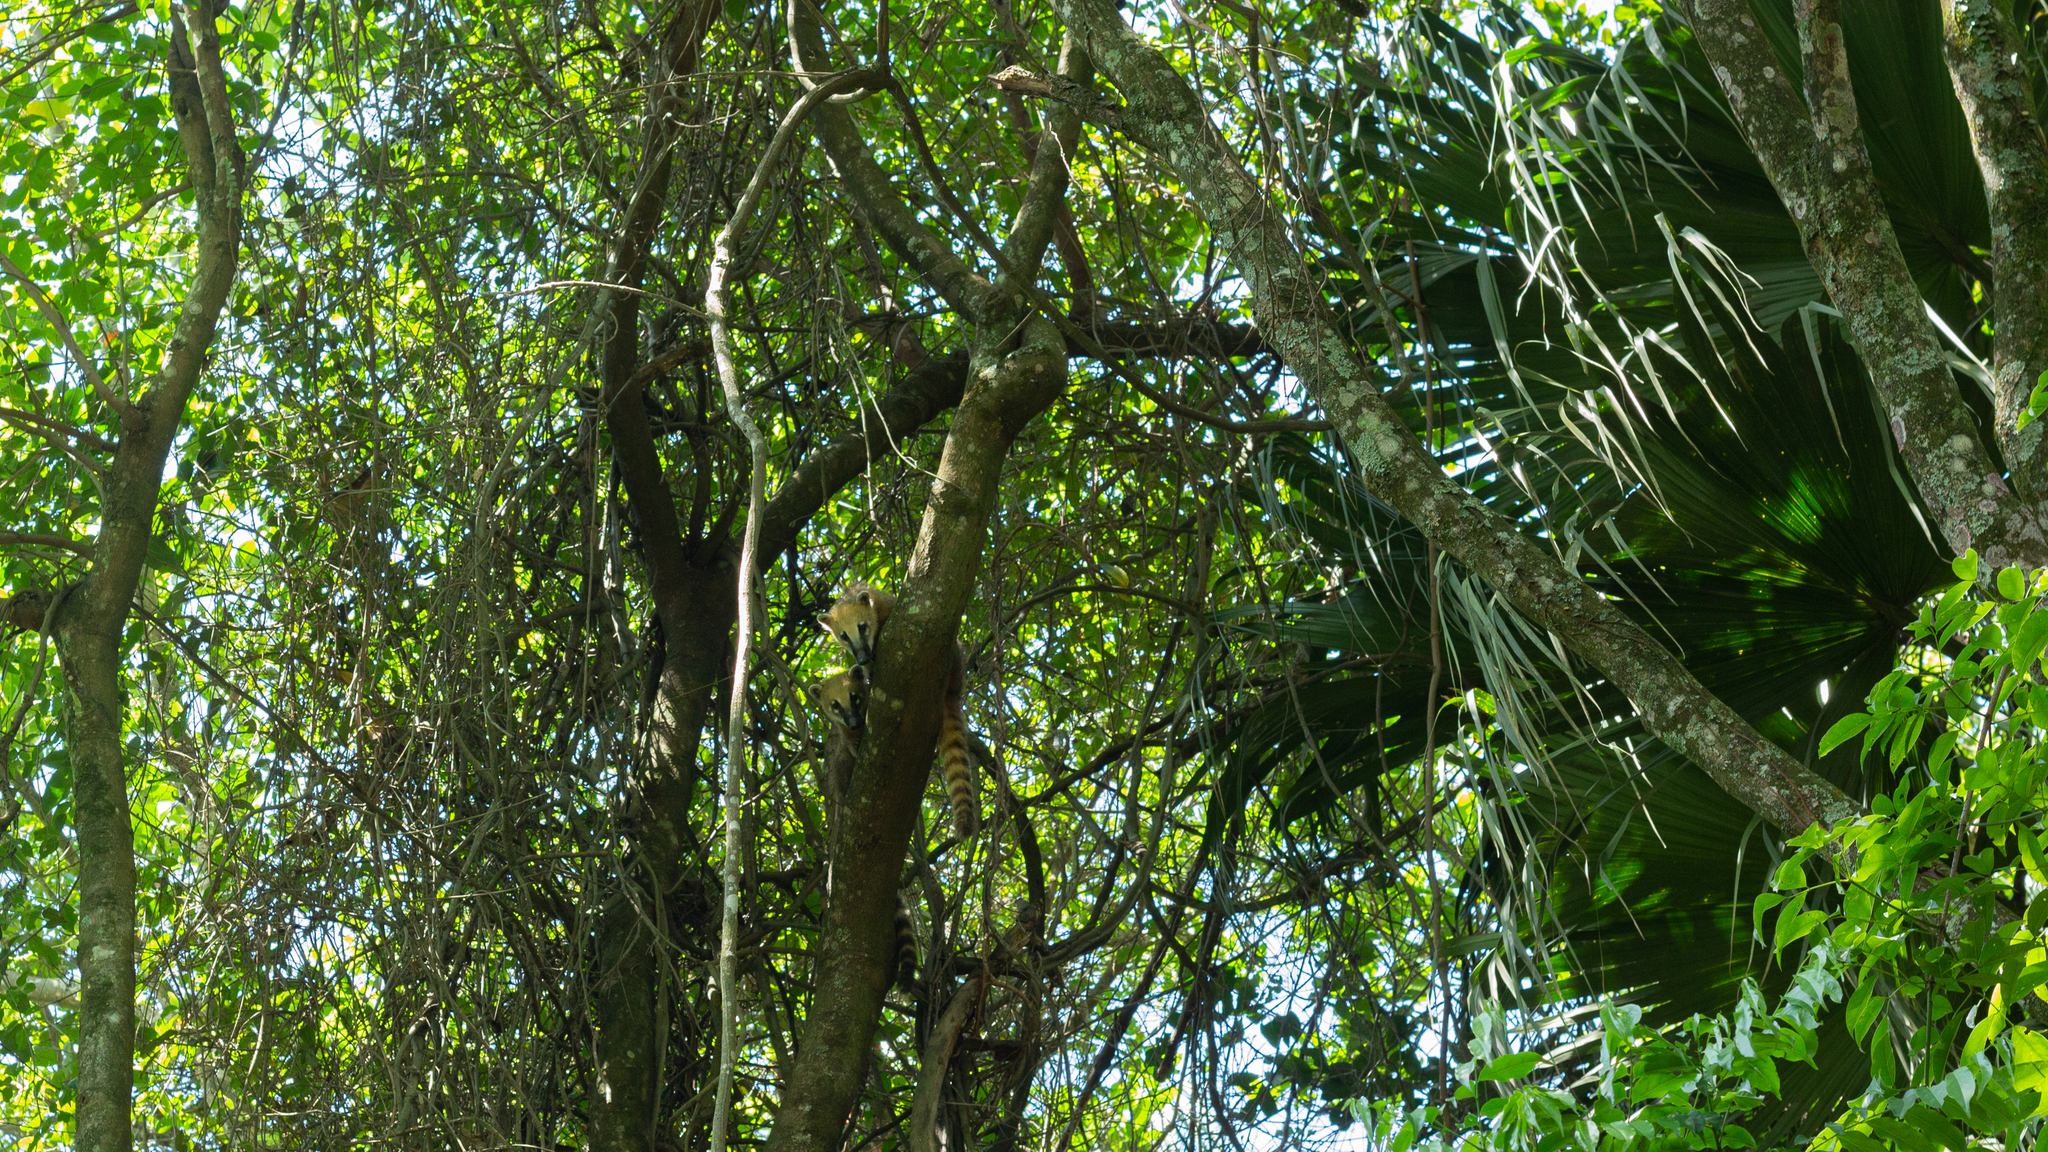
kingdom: Animalia
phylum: Chordata
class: Mammalia
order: Carnivora
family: Procyonidae
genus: Nasua
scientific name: Nasua nasua
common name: South american coati
